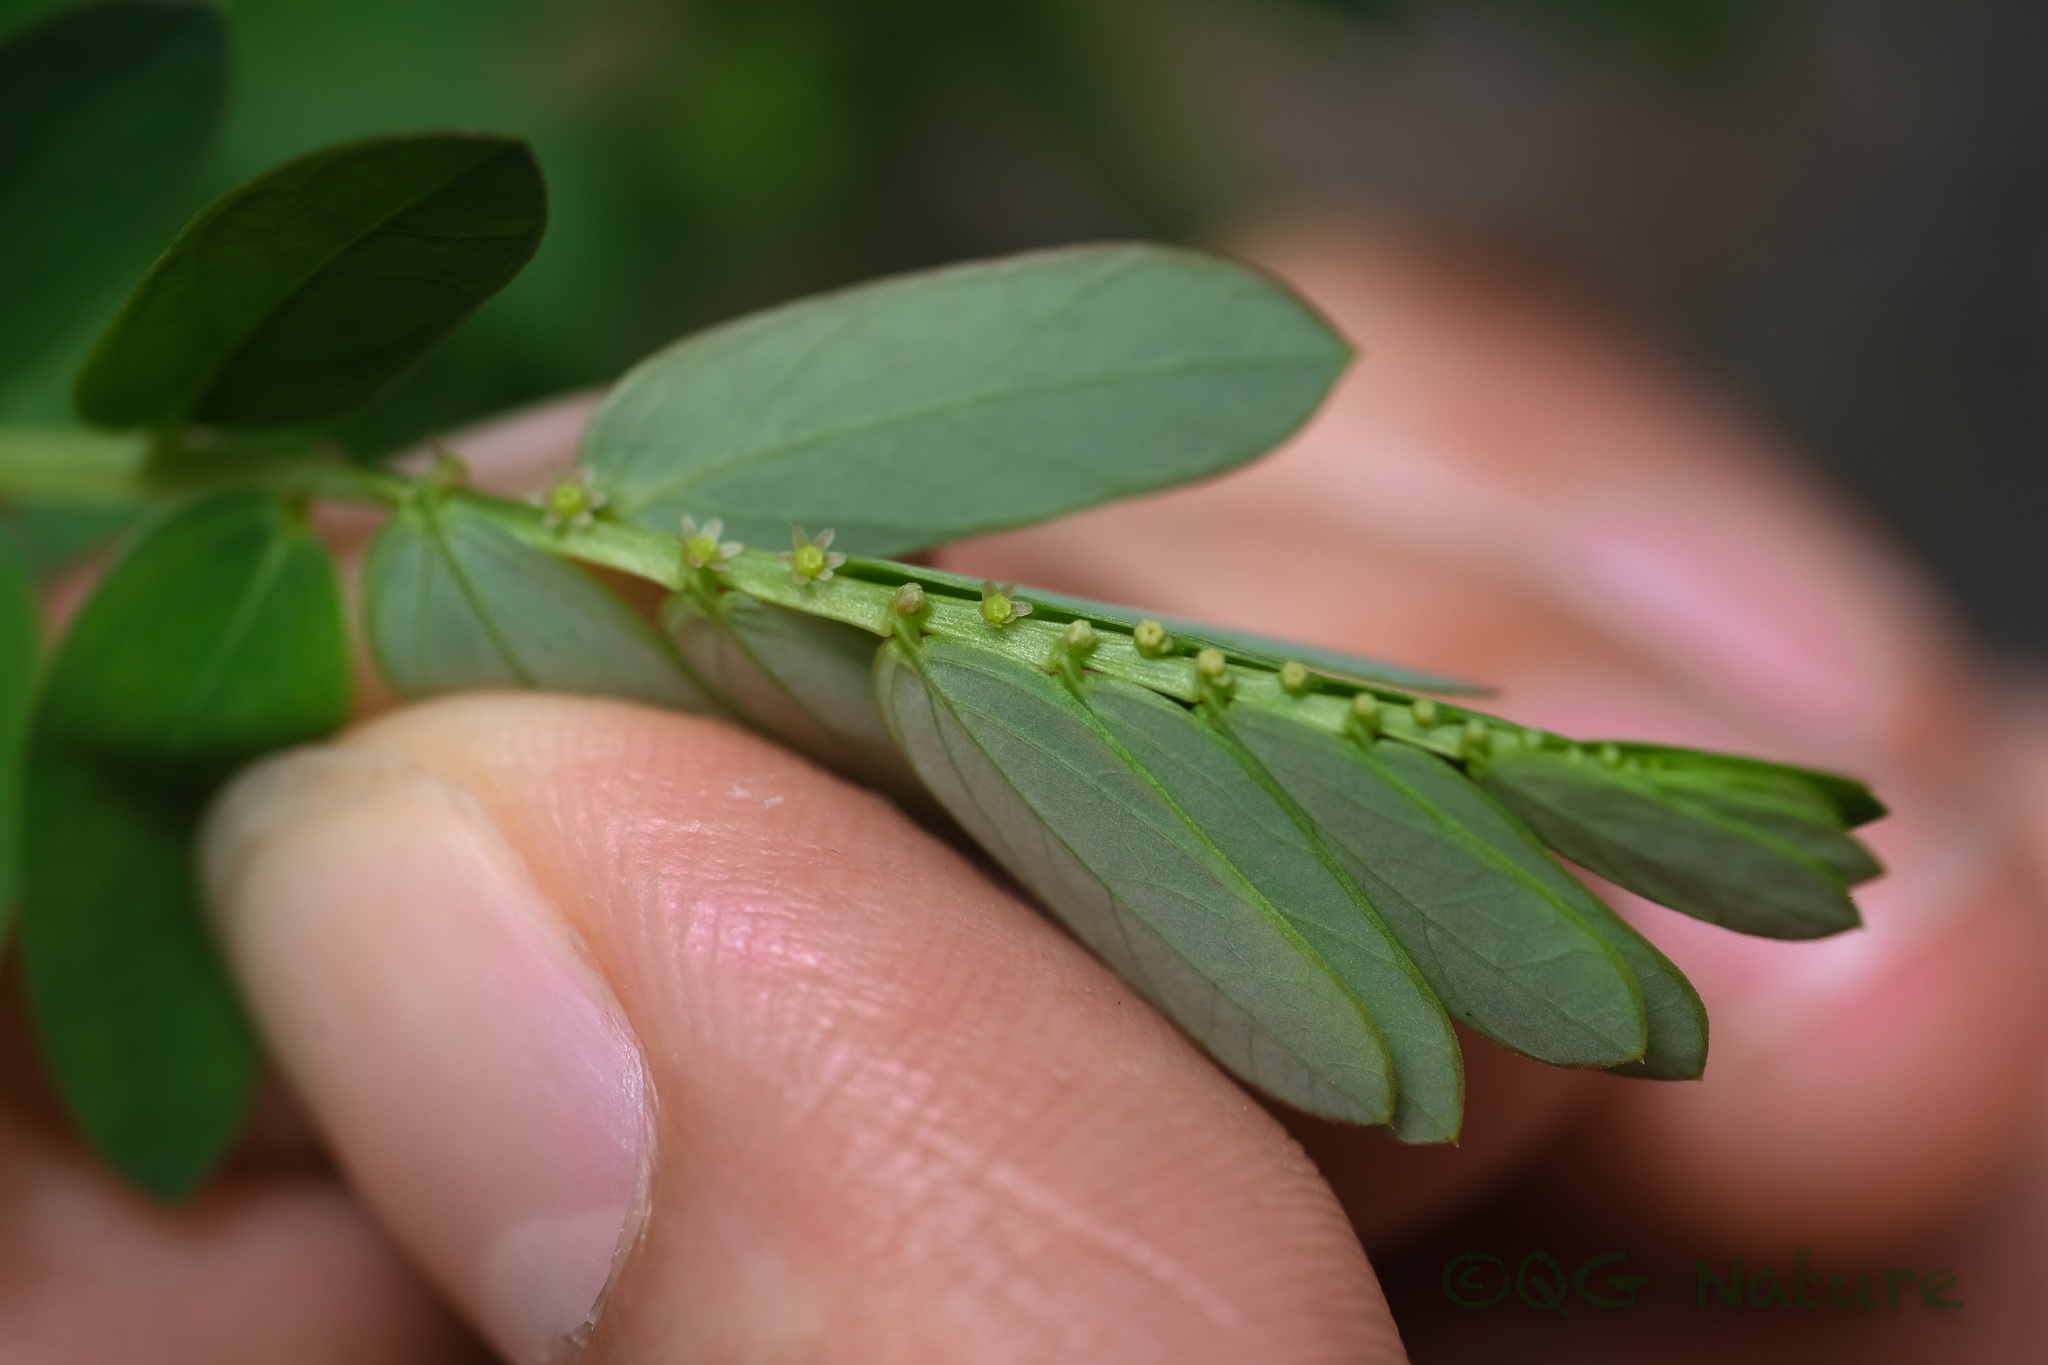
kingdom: Plantae
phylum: Tracheophyta
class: Magnoliopsida
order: Malpighiales
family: Phyllanthaceae
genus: Phyllanthus
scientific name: Phyllanthus urinaria
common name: Chamber bitter
